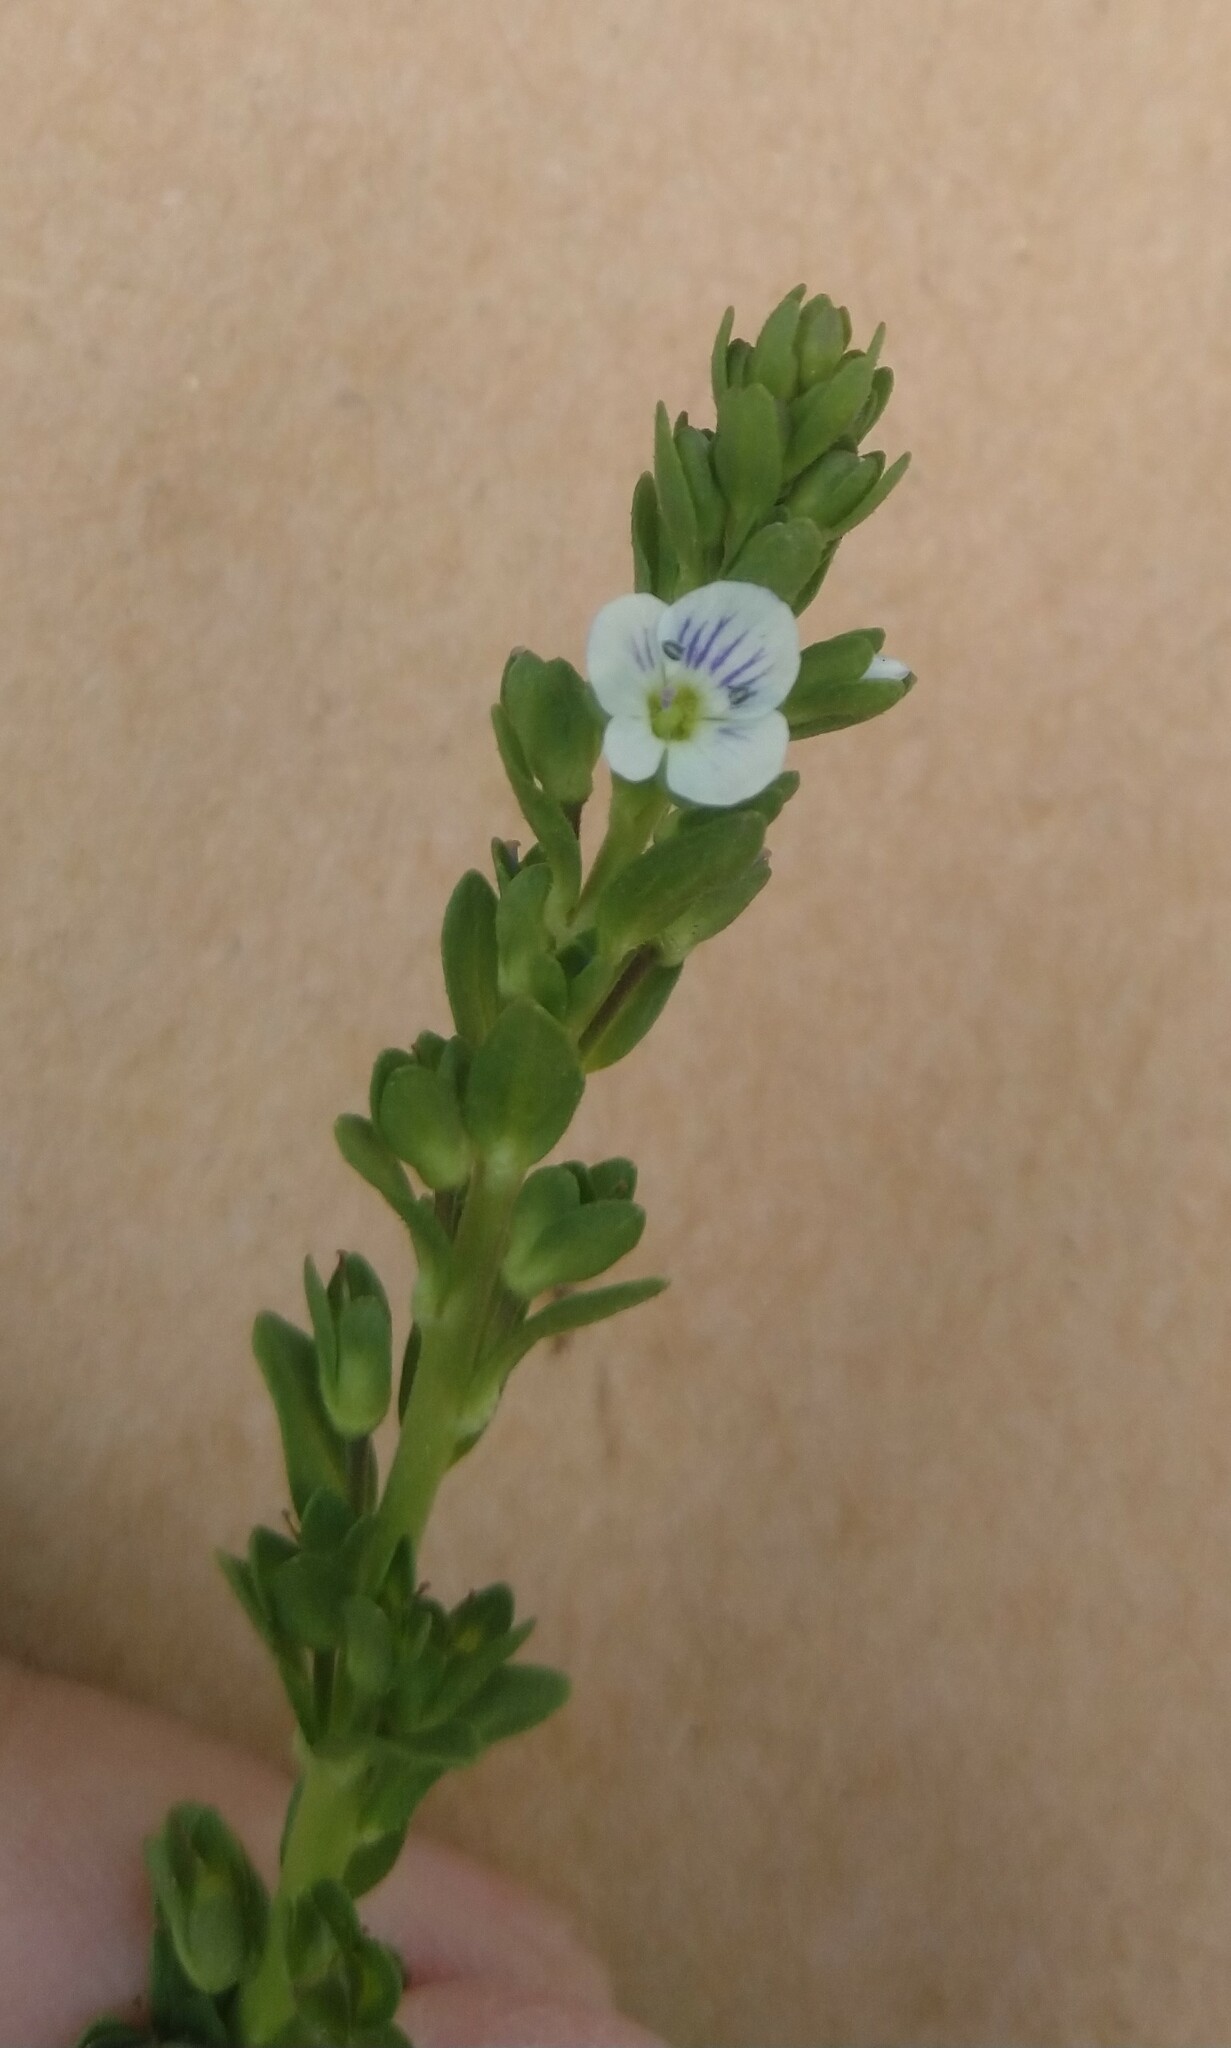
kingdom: Plantae
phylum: Tracheophyta
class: Magnoliopsida
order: Lamiales
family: Plantaginaceae
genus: Veronica
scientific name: Veronica serpyllifolia
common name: Thyme-leaved speedwell
